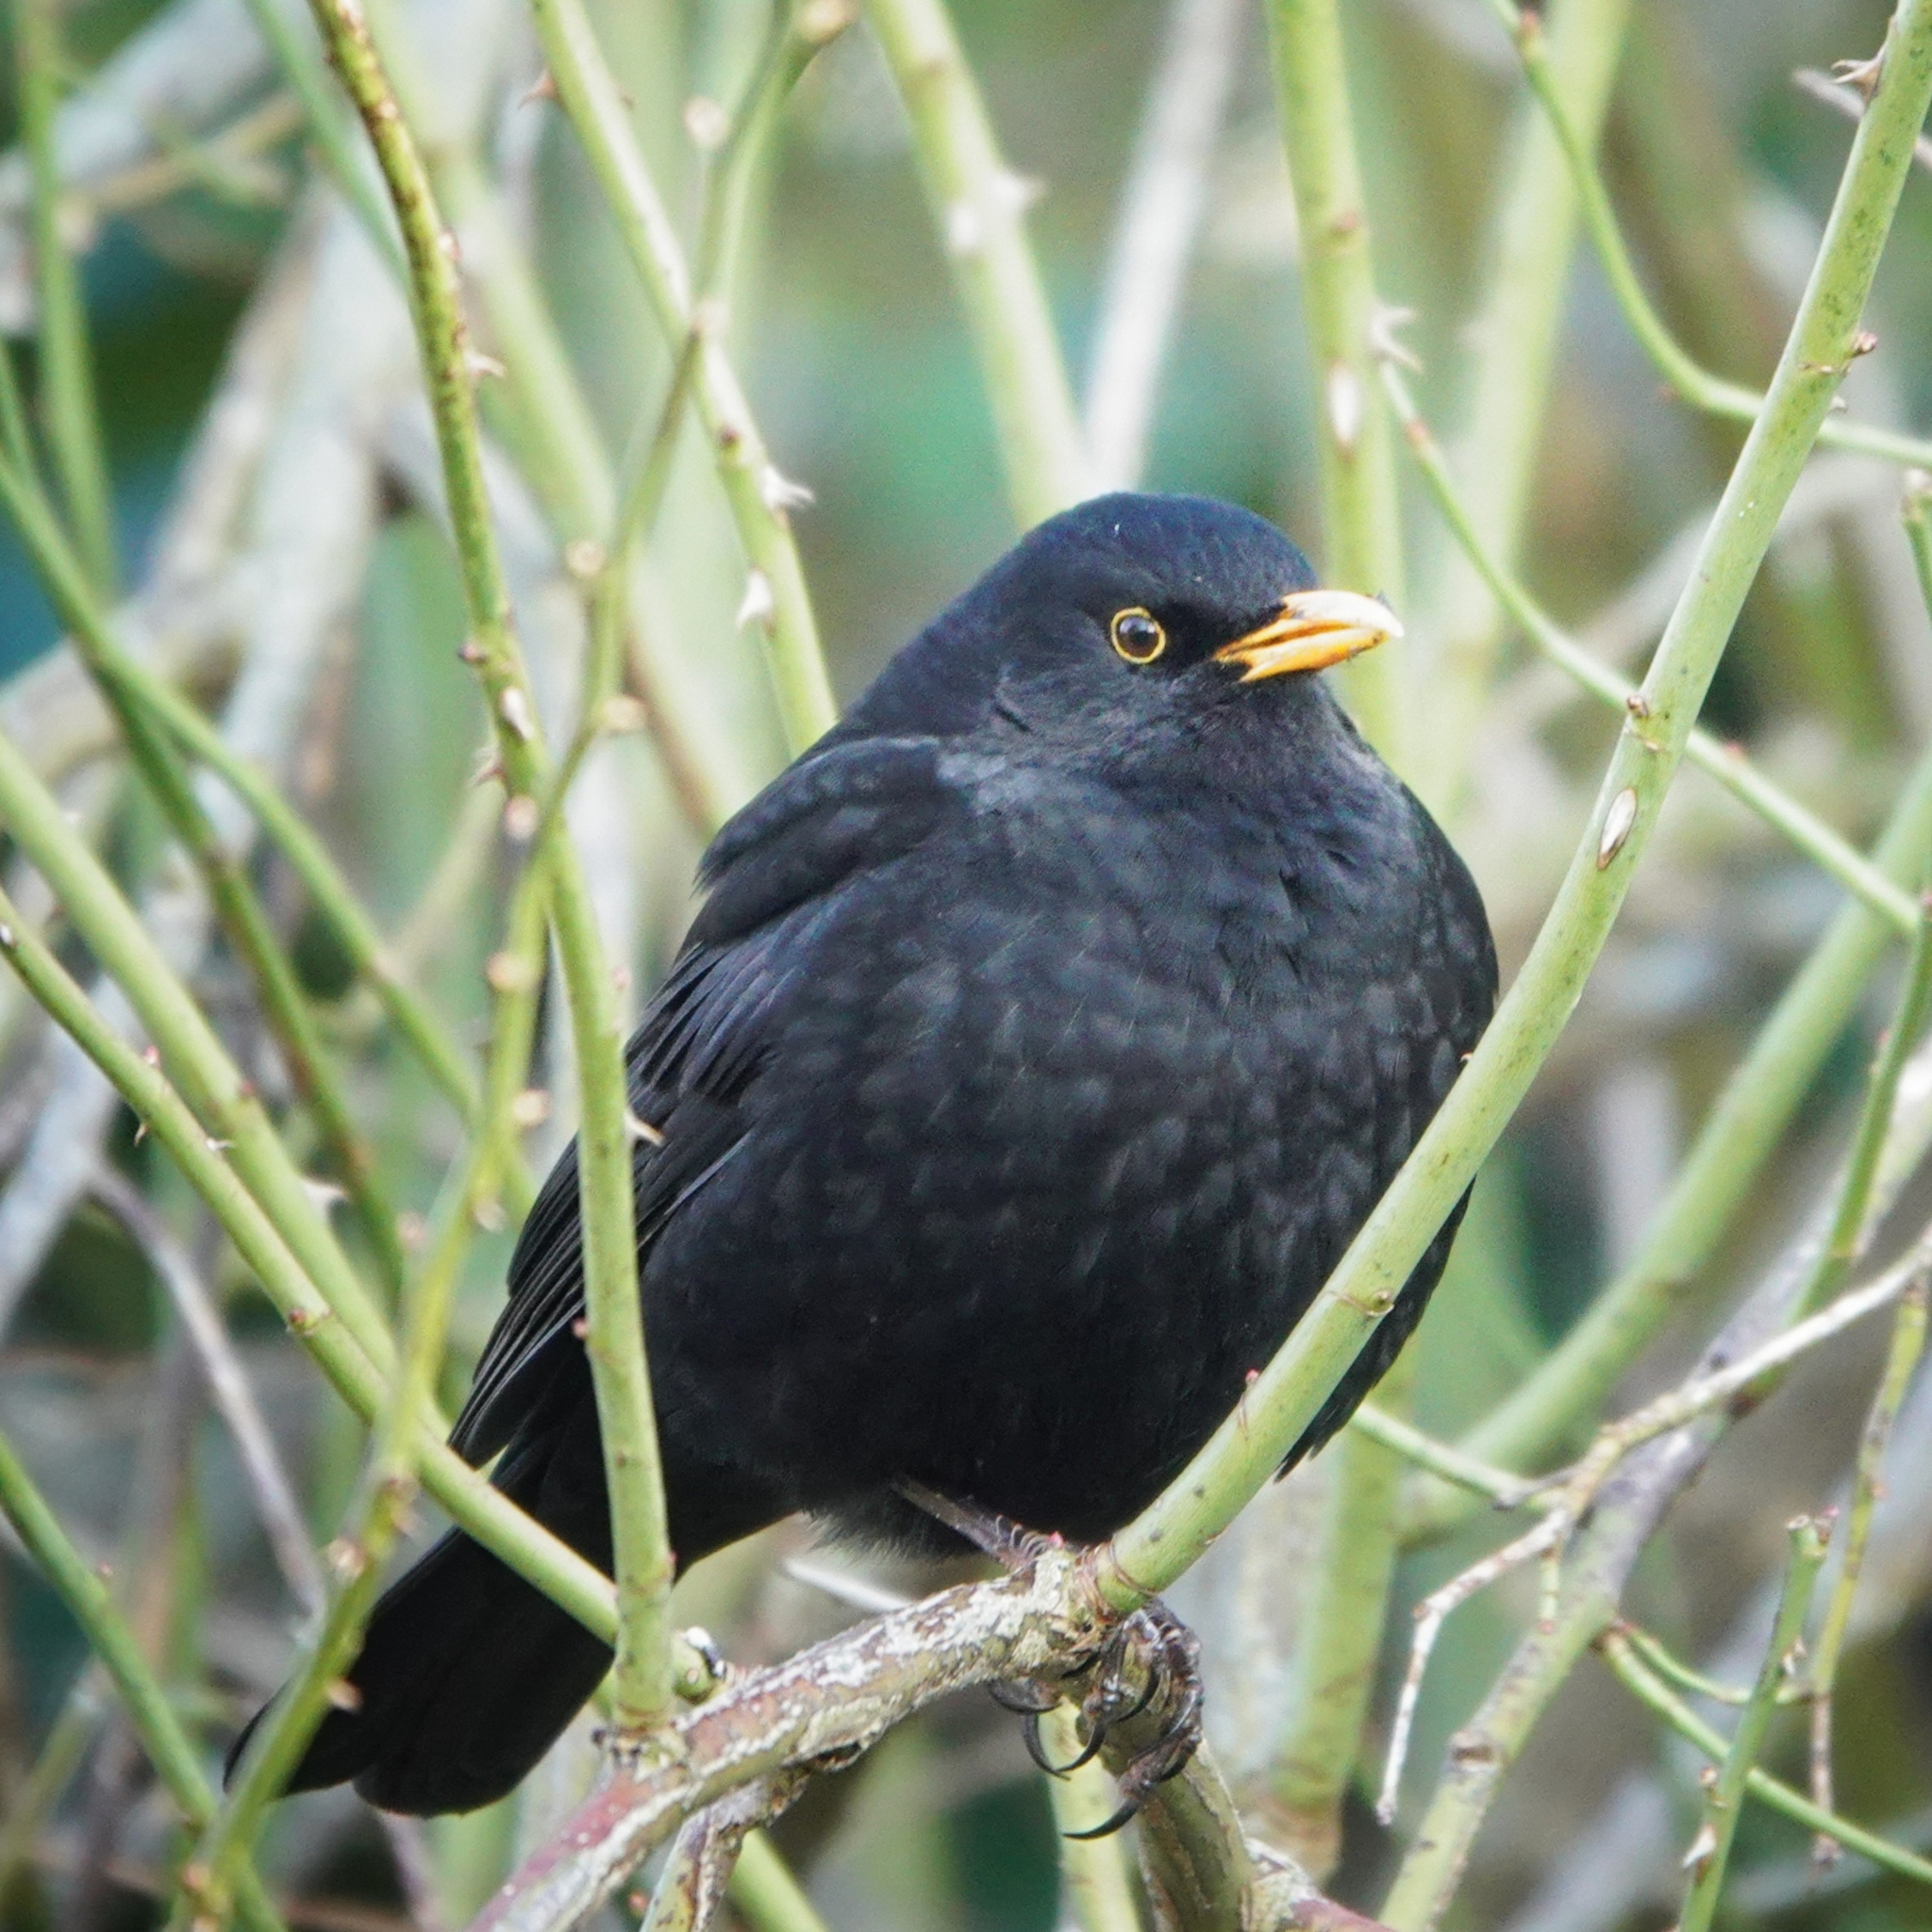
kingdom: Animalia
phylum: Chordata
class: Aves
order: Passeriformes
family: Turdidae
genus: Turdus
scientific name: Turdus merula
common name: Common blackbird
